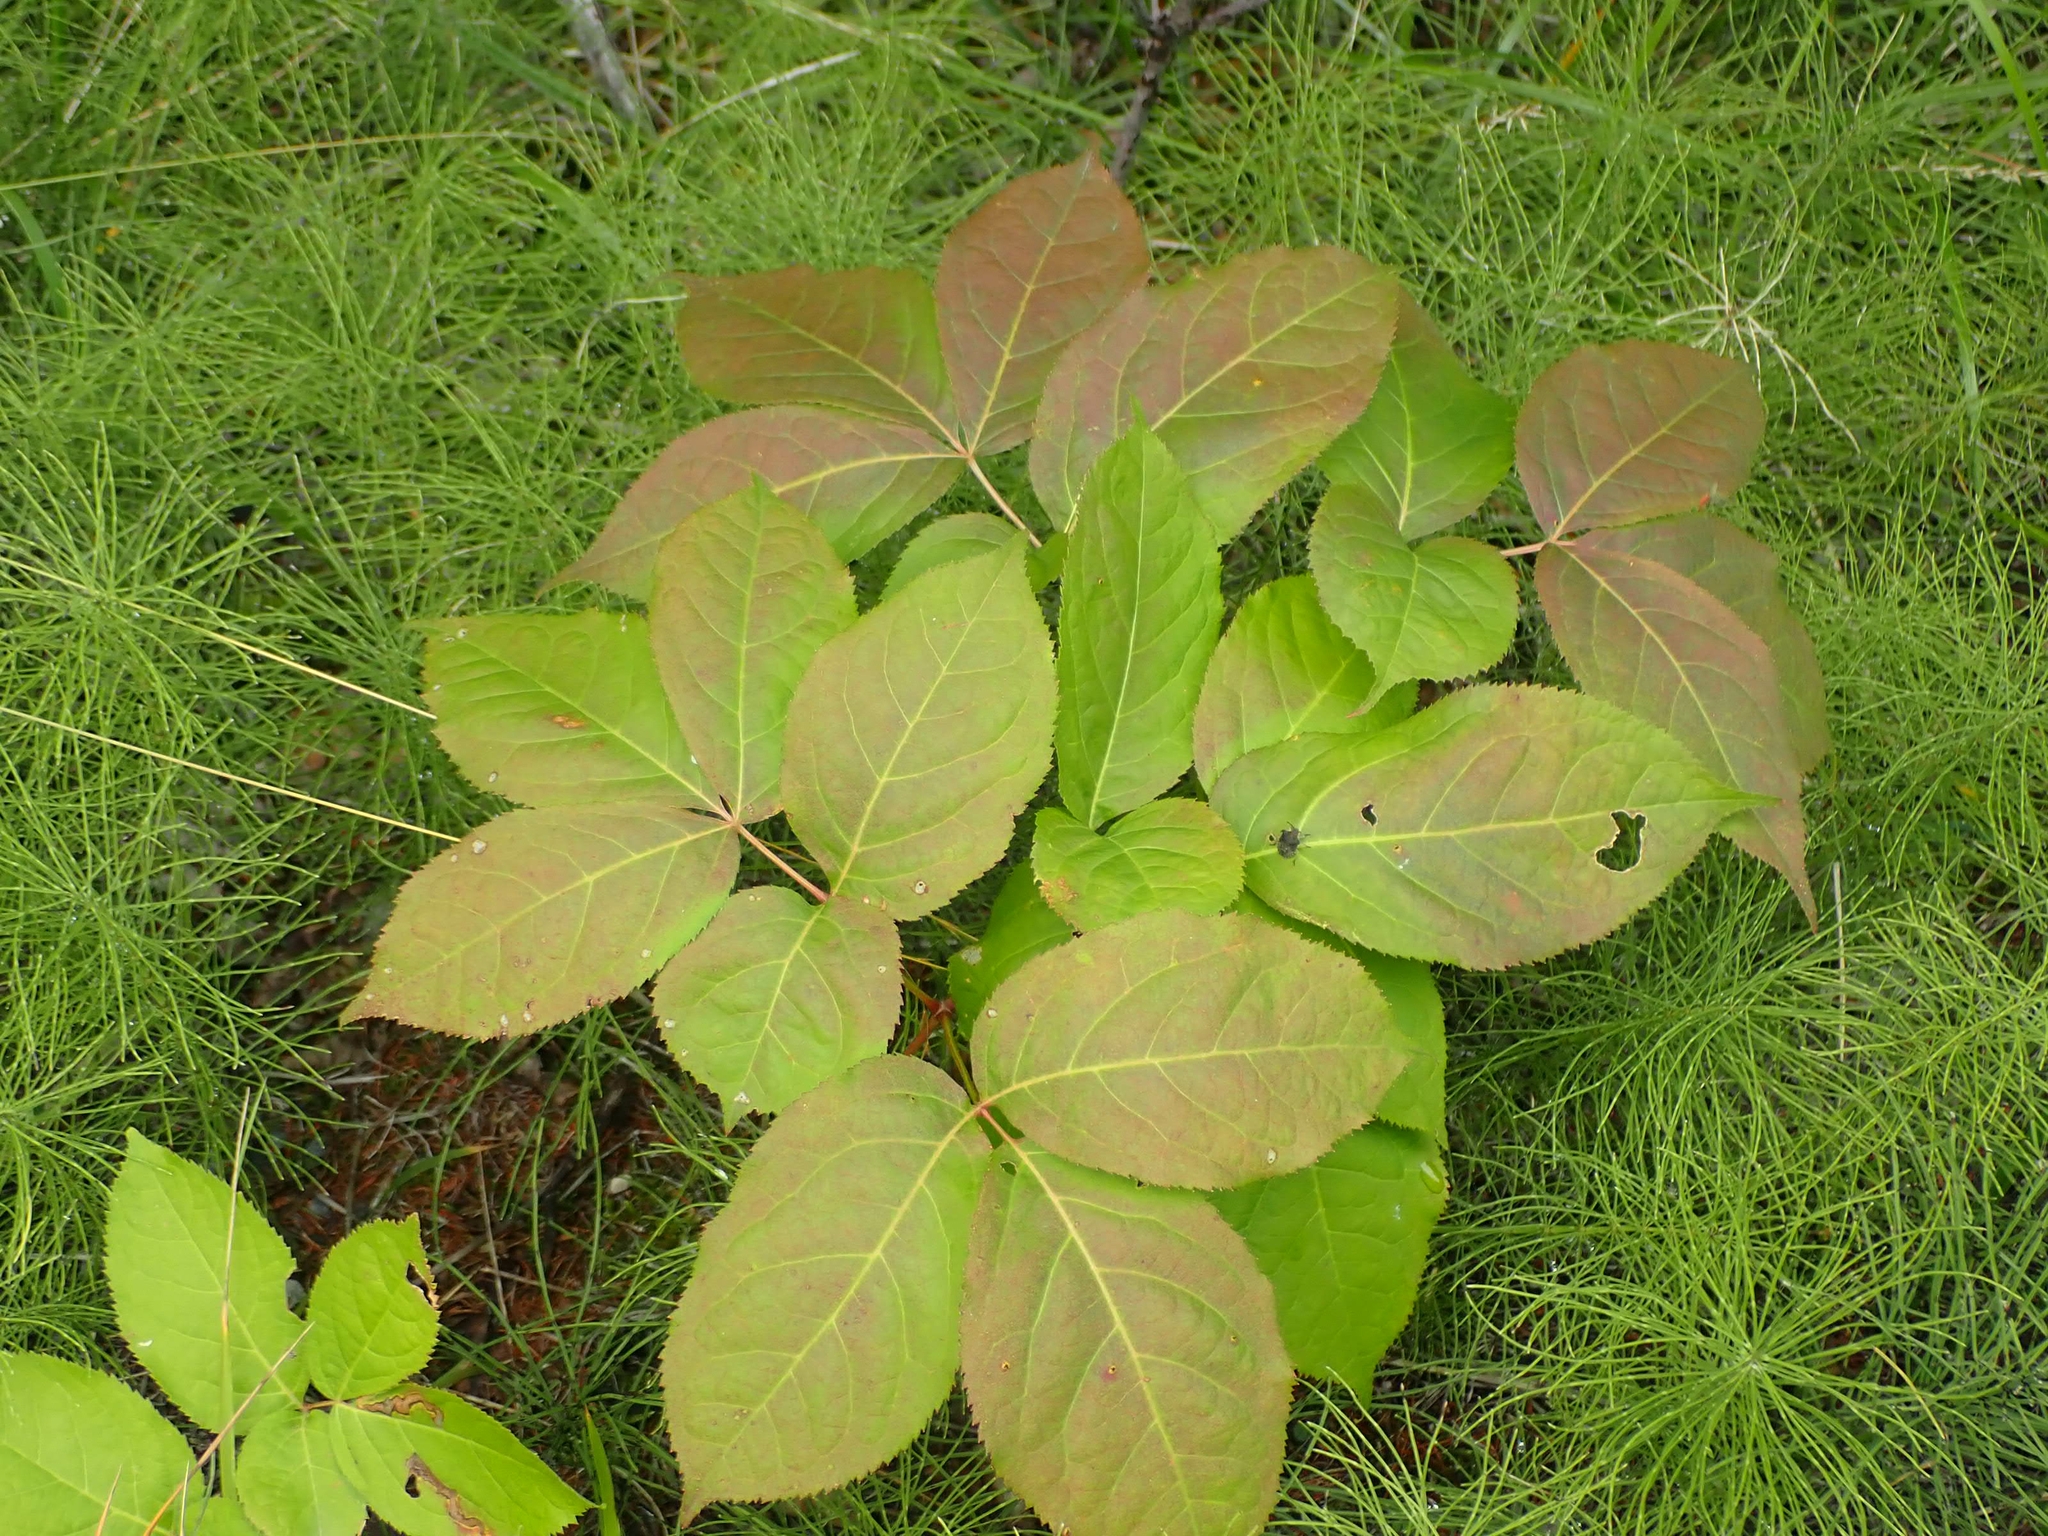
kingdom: Plantae
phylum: Tracheophyta
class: Magnoliopsida
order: Apiales
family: Araliaceae
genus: Aralia
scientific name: Aralia nudicaulis
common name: Wild sarsaparilla
